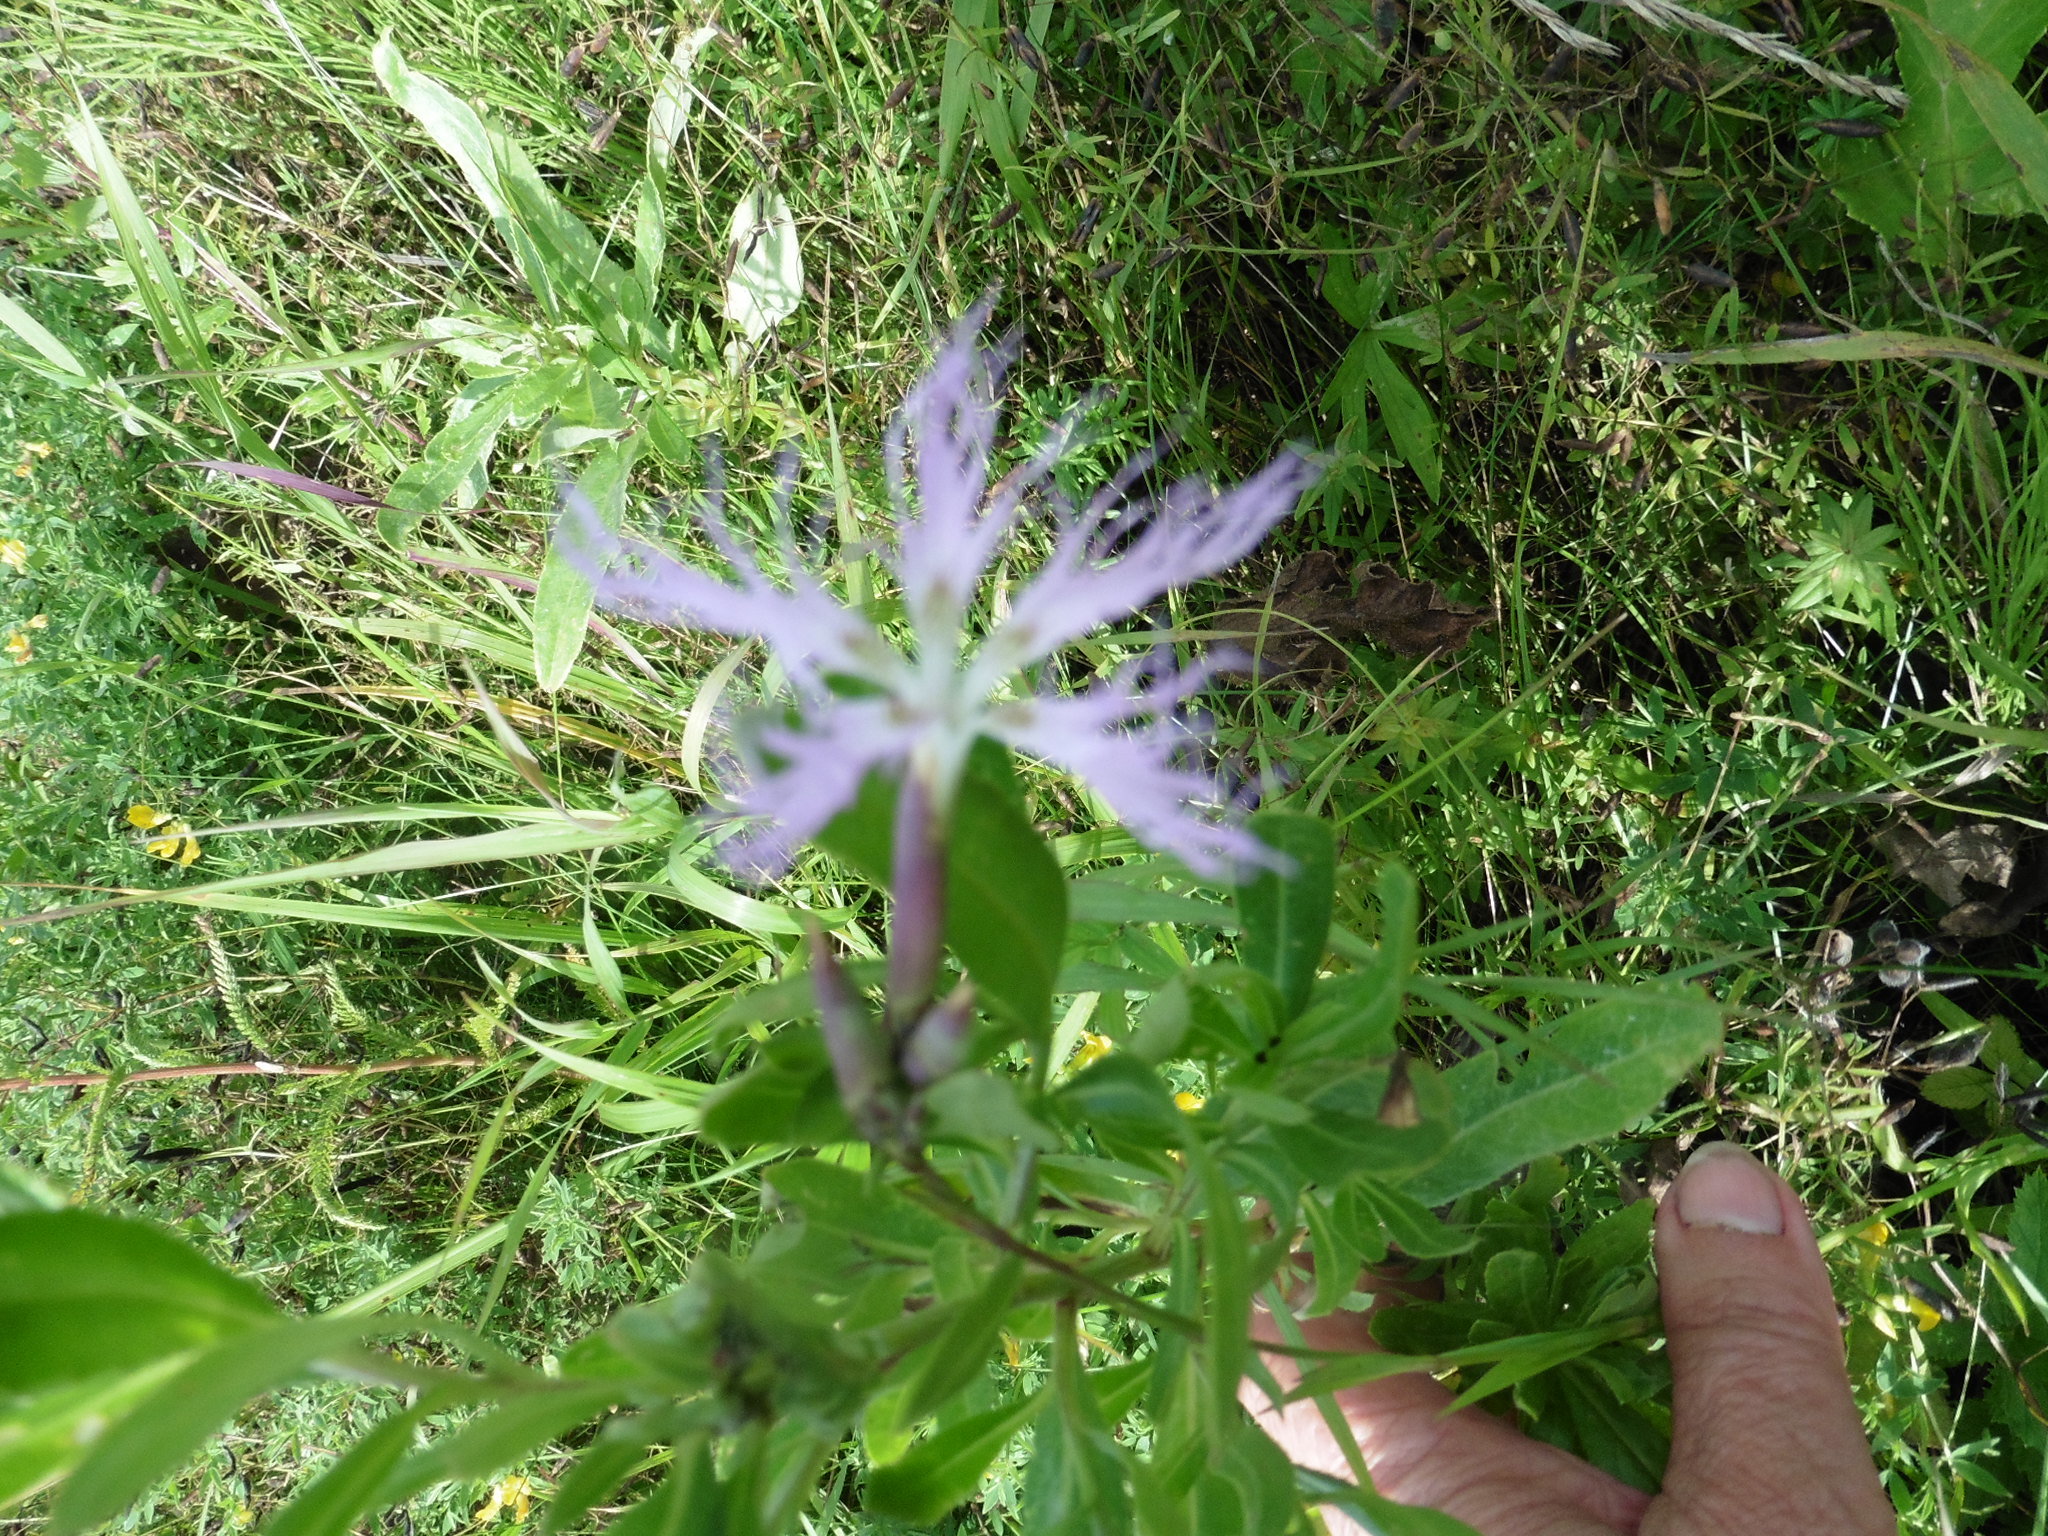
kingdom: Plantae
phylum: Tracheophyta
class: Magnoliopsida
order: Caryophyllales
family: Caryophyllaceae
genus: Dianthus
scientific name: Dianthus superbus
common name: Fringed pink
